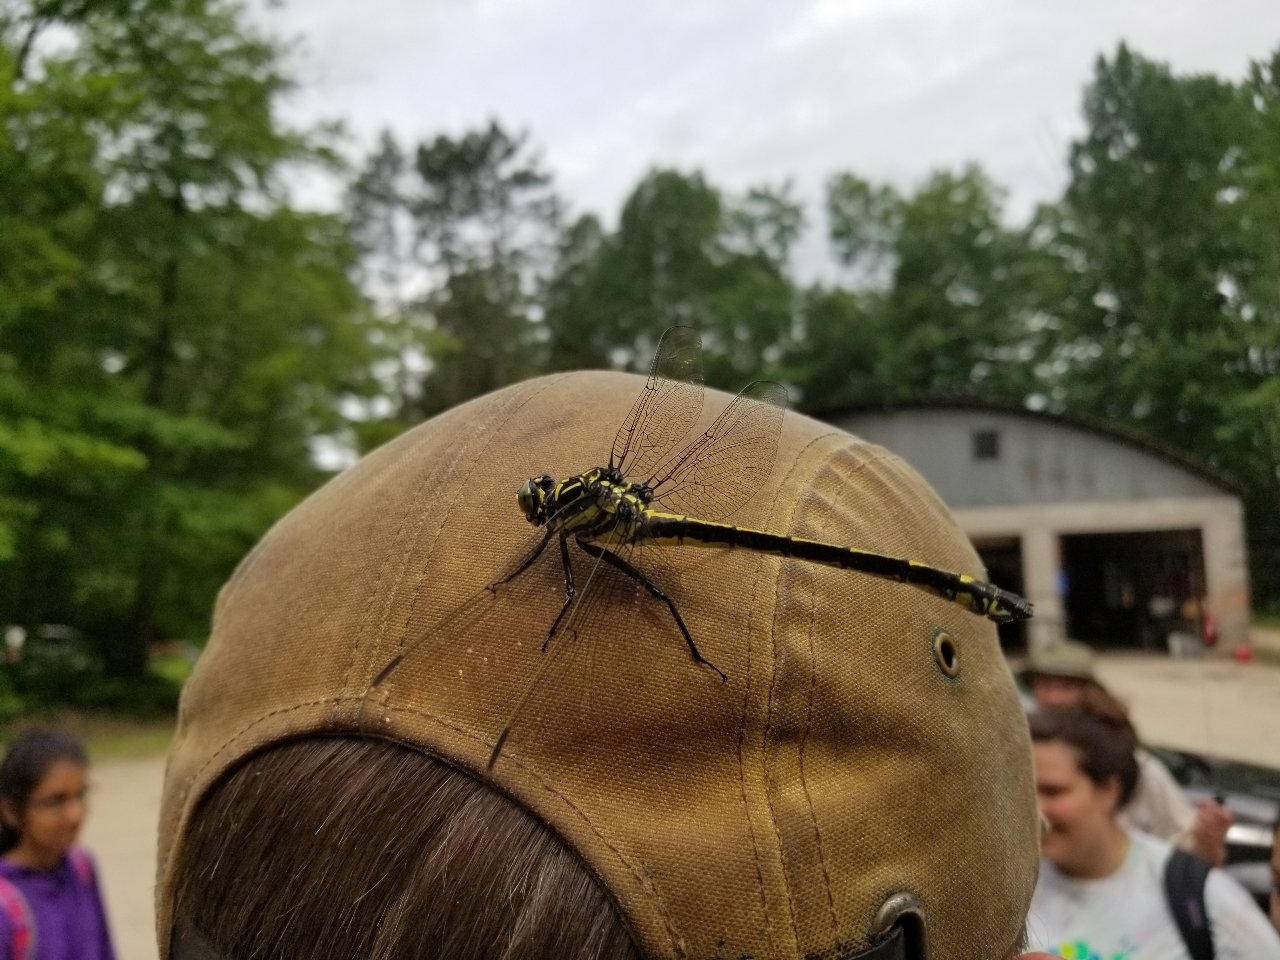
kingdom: Animalia
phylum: Arthropoda
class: Insecta
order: Odonata
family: Gomphidae
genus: Hagenius
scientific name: Hagenius brevistylus
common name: Dragonhunter
